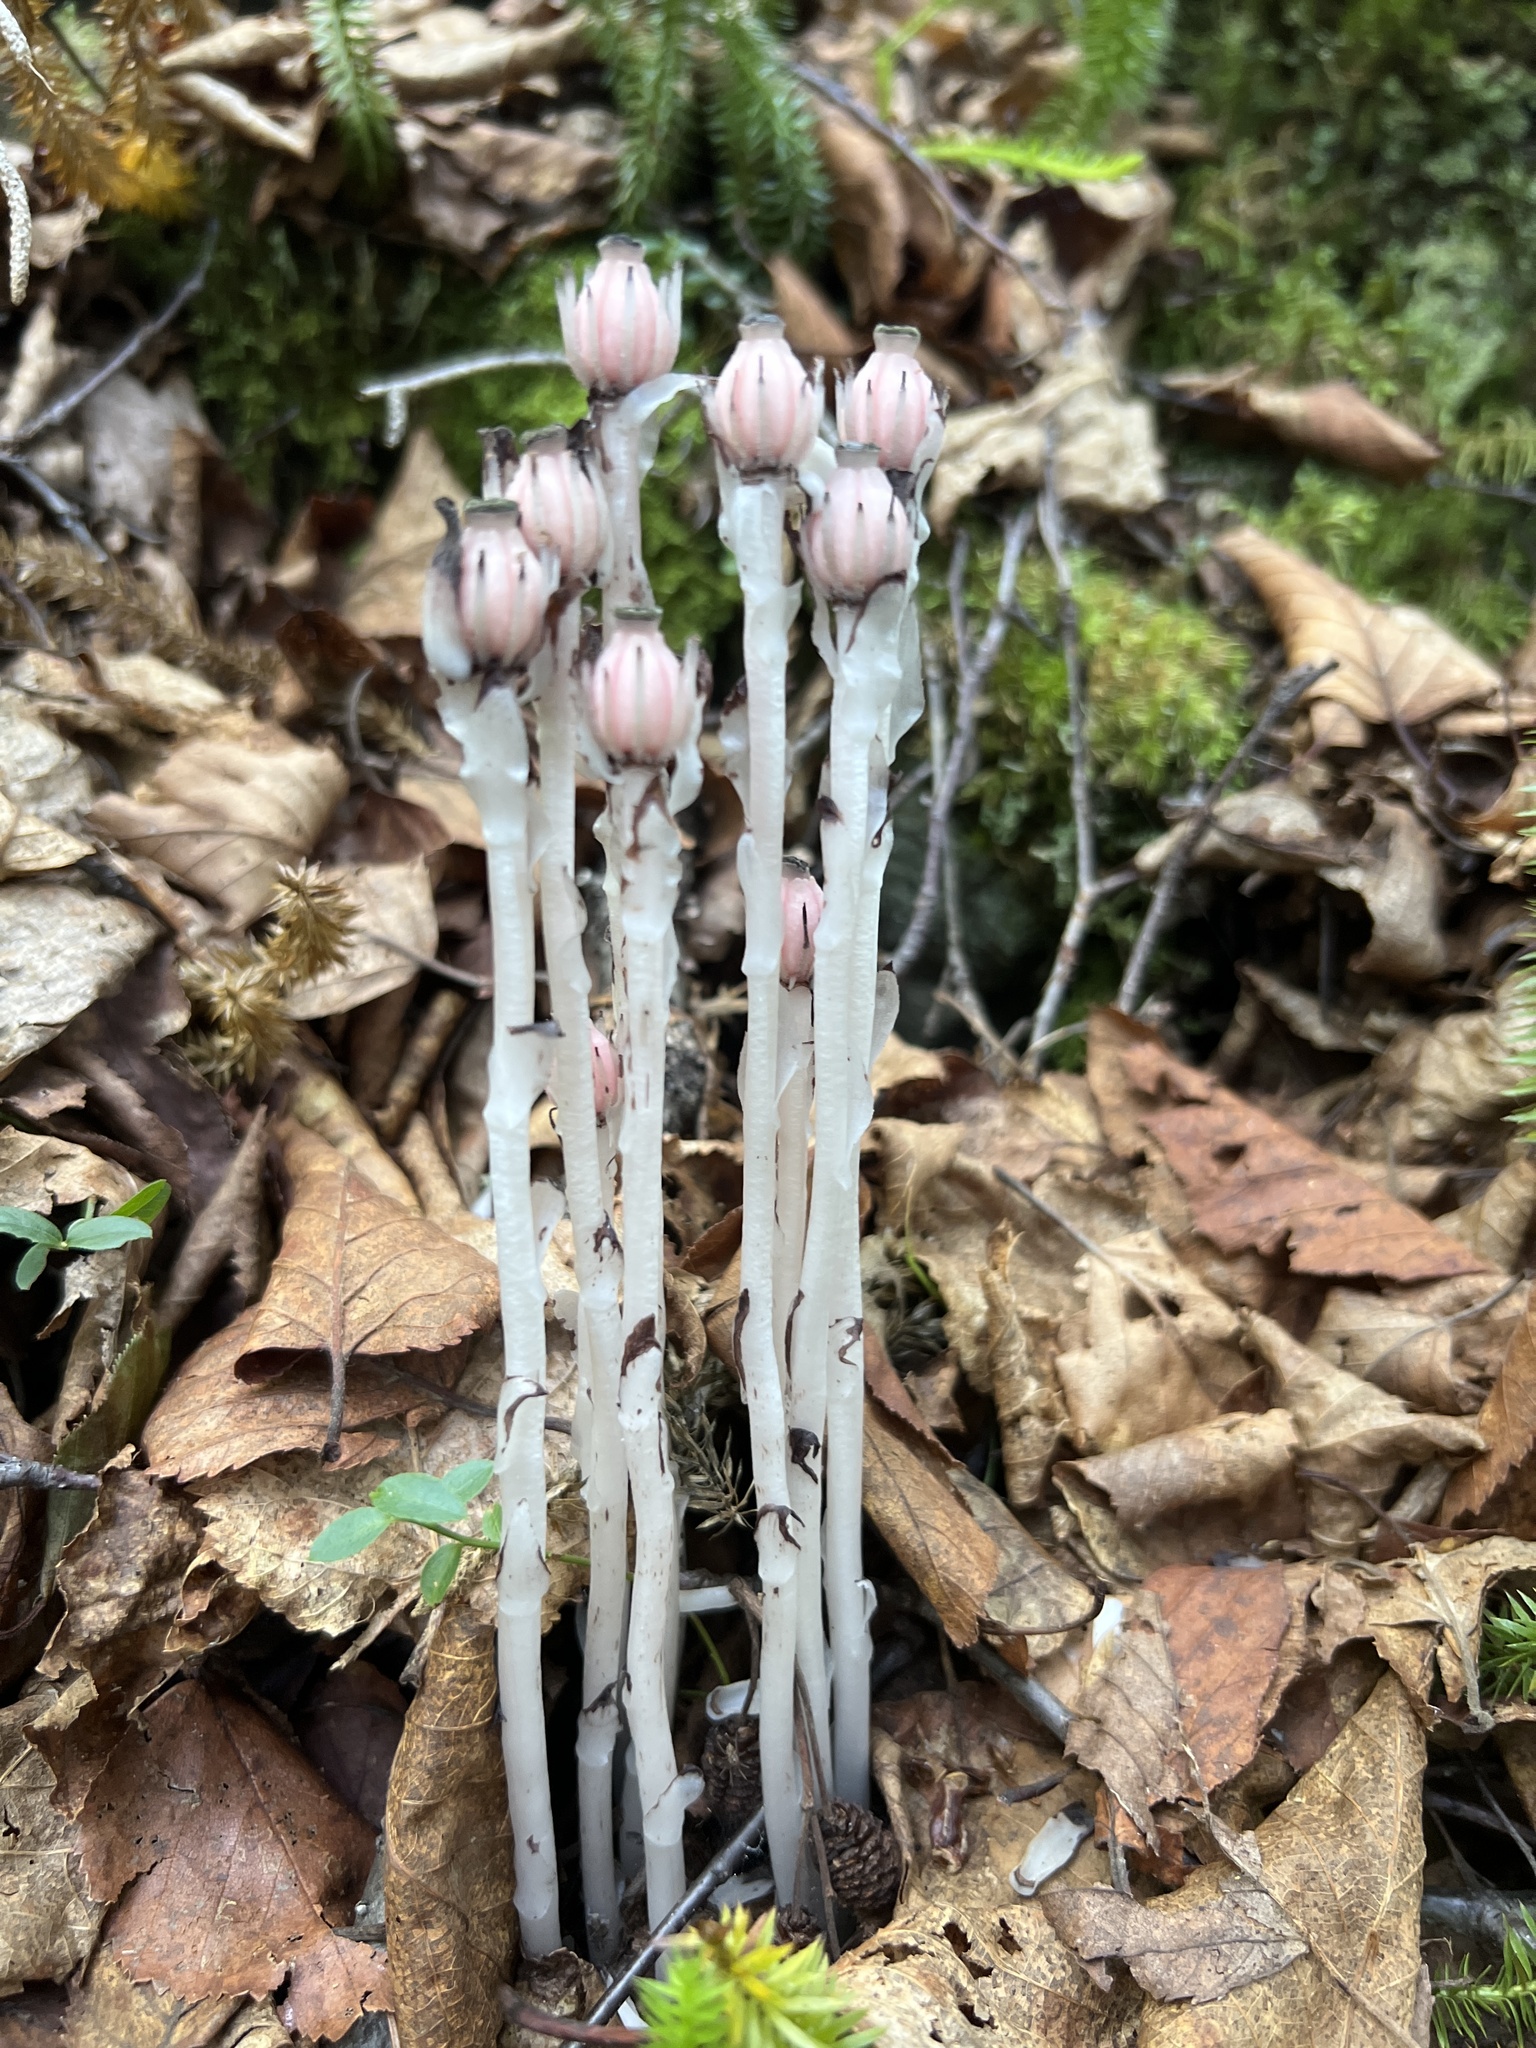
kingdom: Plantae
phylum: Tracheophyta
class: Magnoliopsida
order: Ericales
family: Ericaceae
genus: Monotropa
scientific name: Monotropa uniflora
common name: Convulsion root
